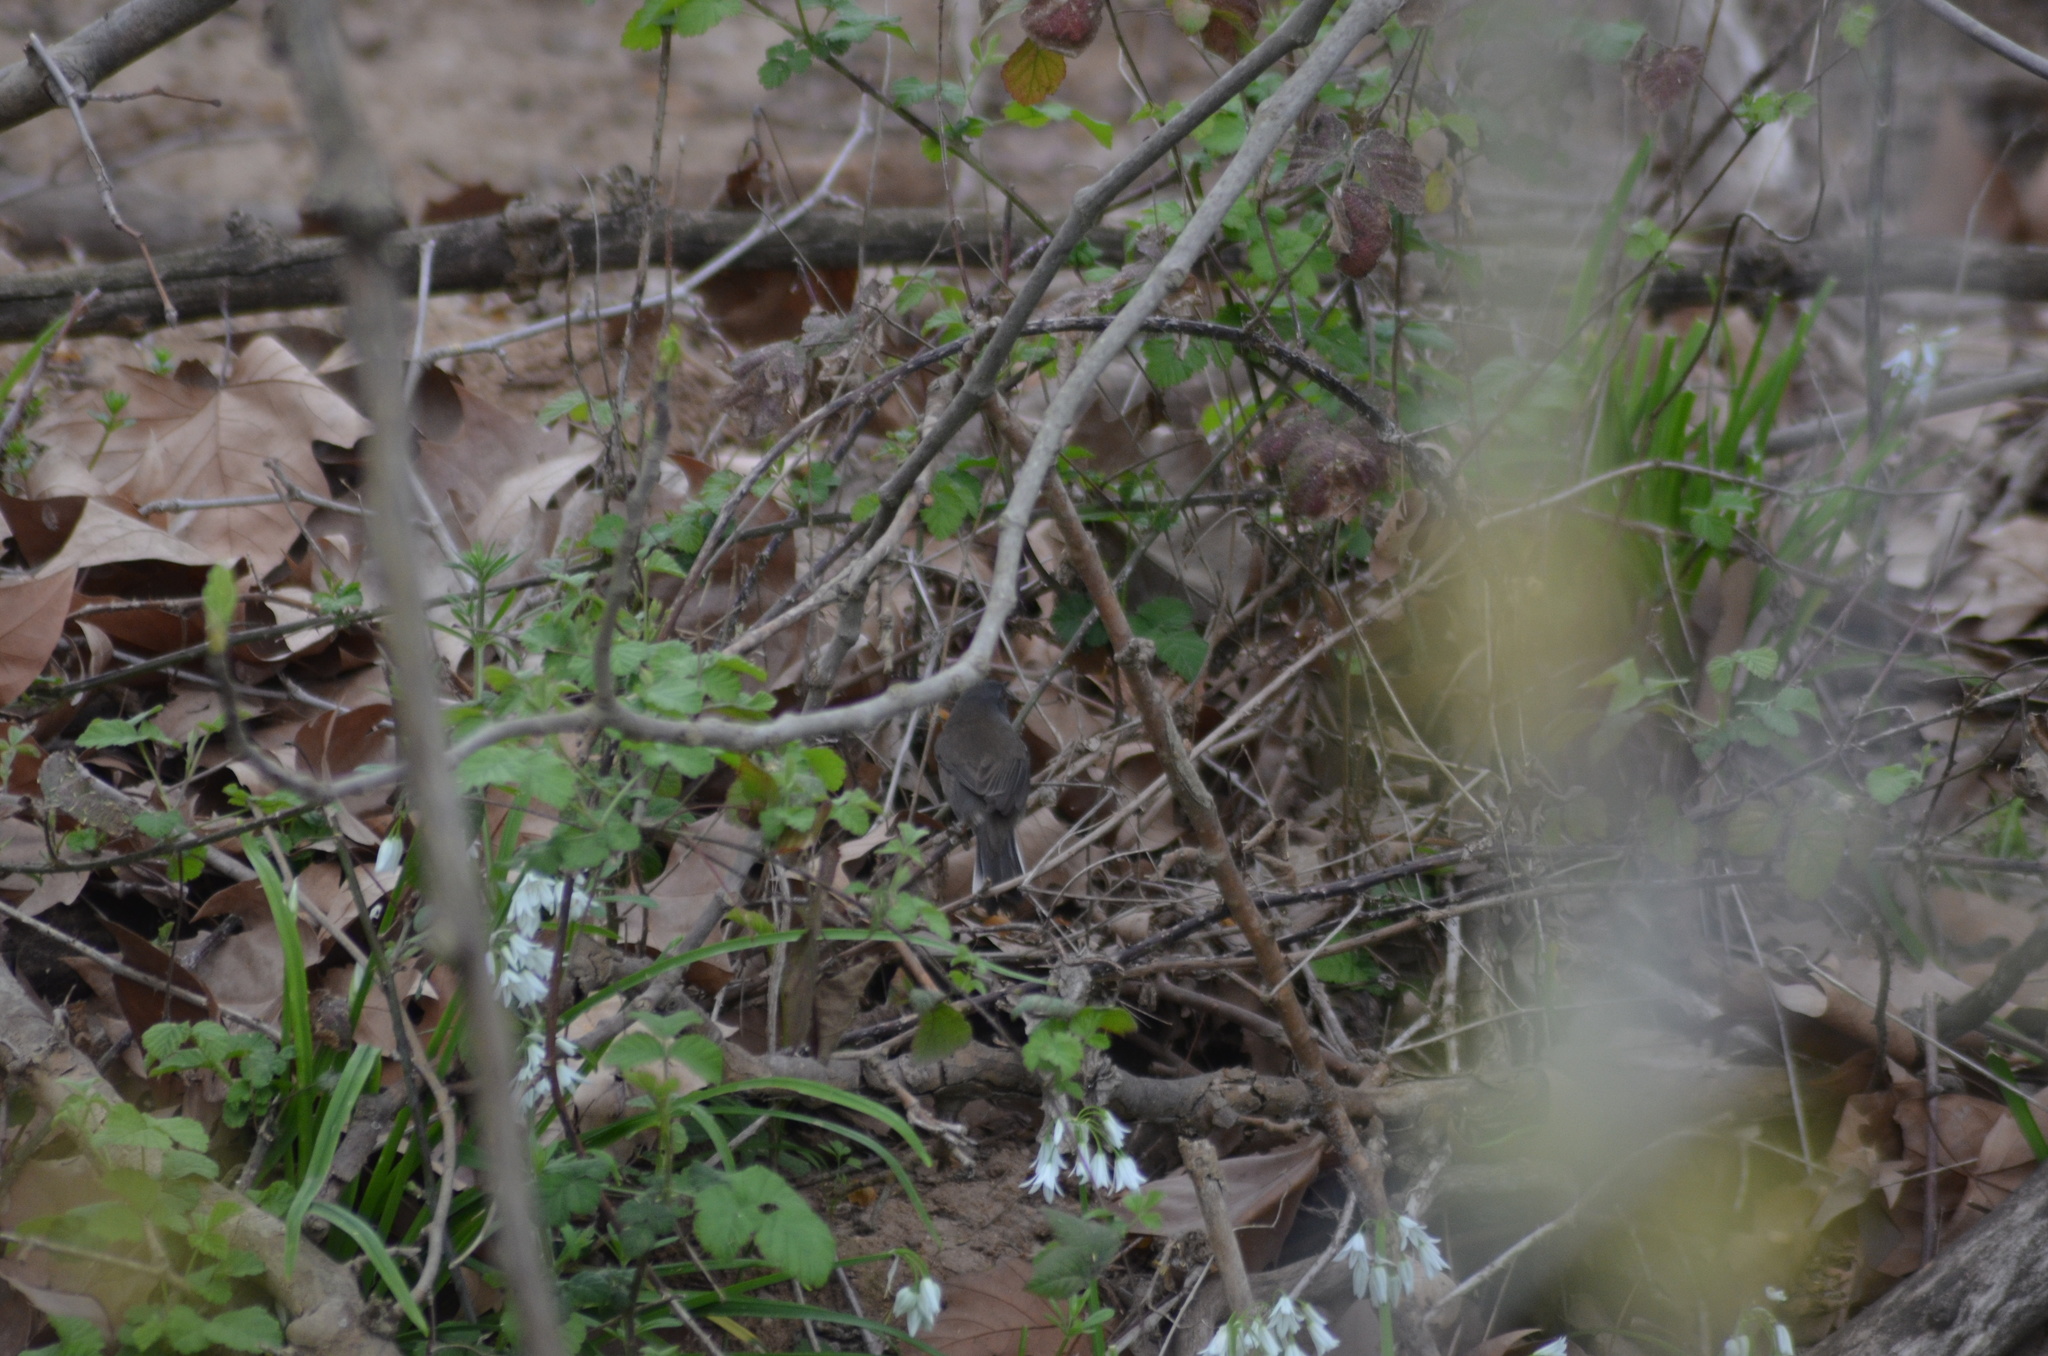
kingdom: Animalia
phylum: Chordata
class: Aves
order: Passeriformes
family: Sylviidae
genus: Curruca
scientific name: Curruca melanocephala
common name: Sardinian warbler
